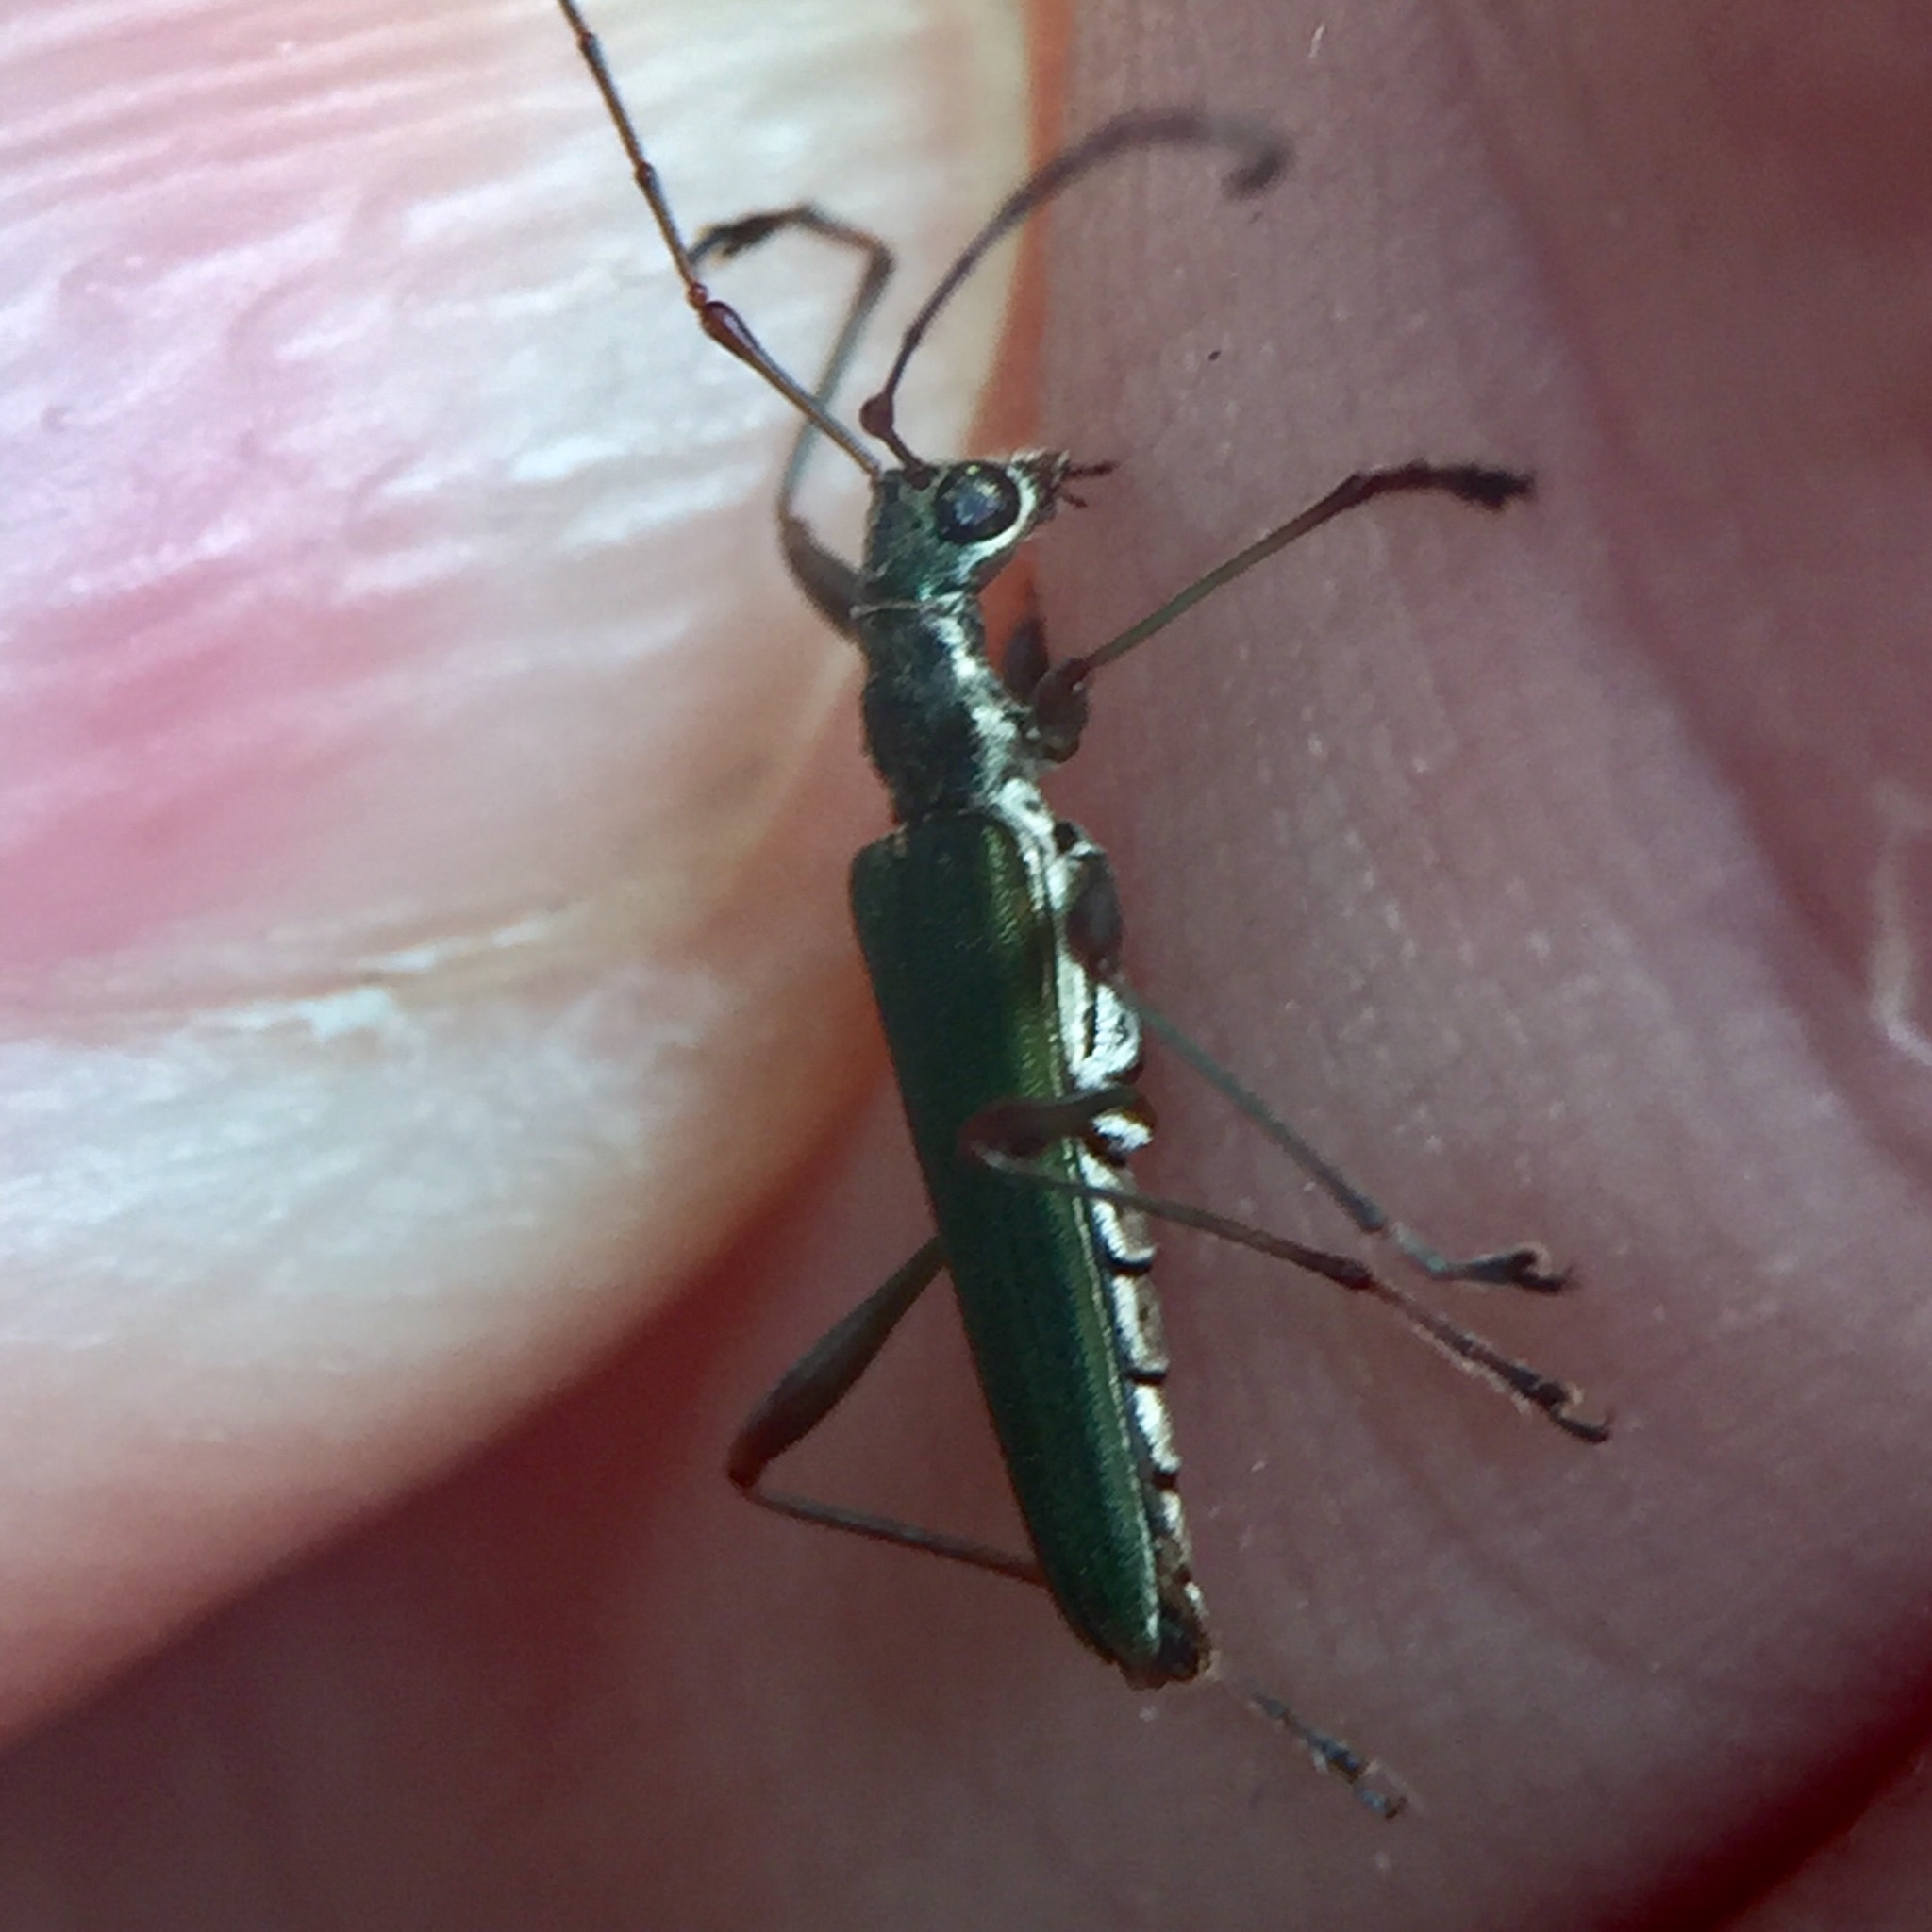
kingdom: Animalia
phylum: Arthropoda
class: Insecta
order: Coleoptera
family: Cerambycidae
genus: Calliprason
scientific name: Calliprason sinclairi
